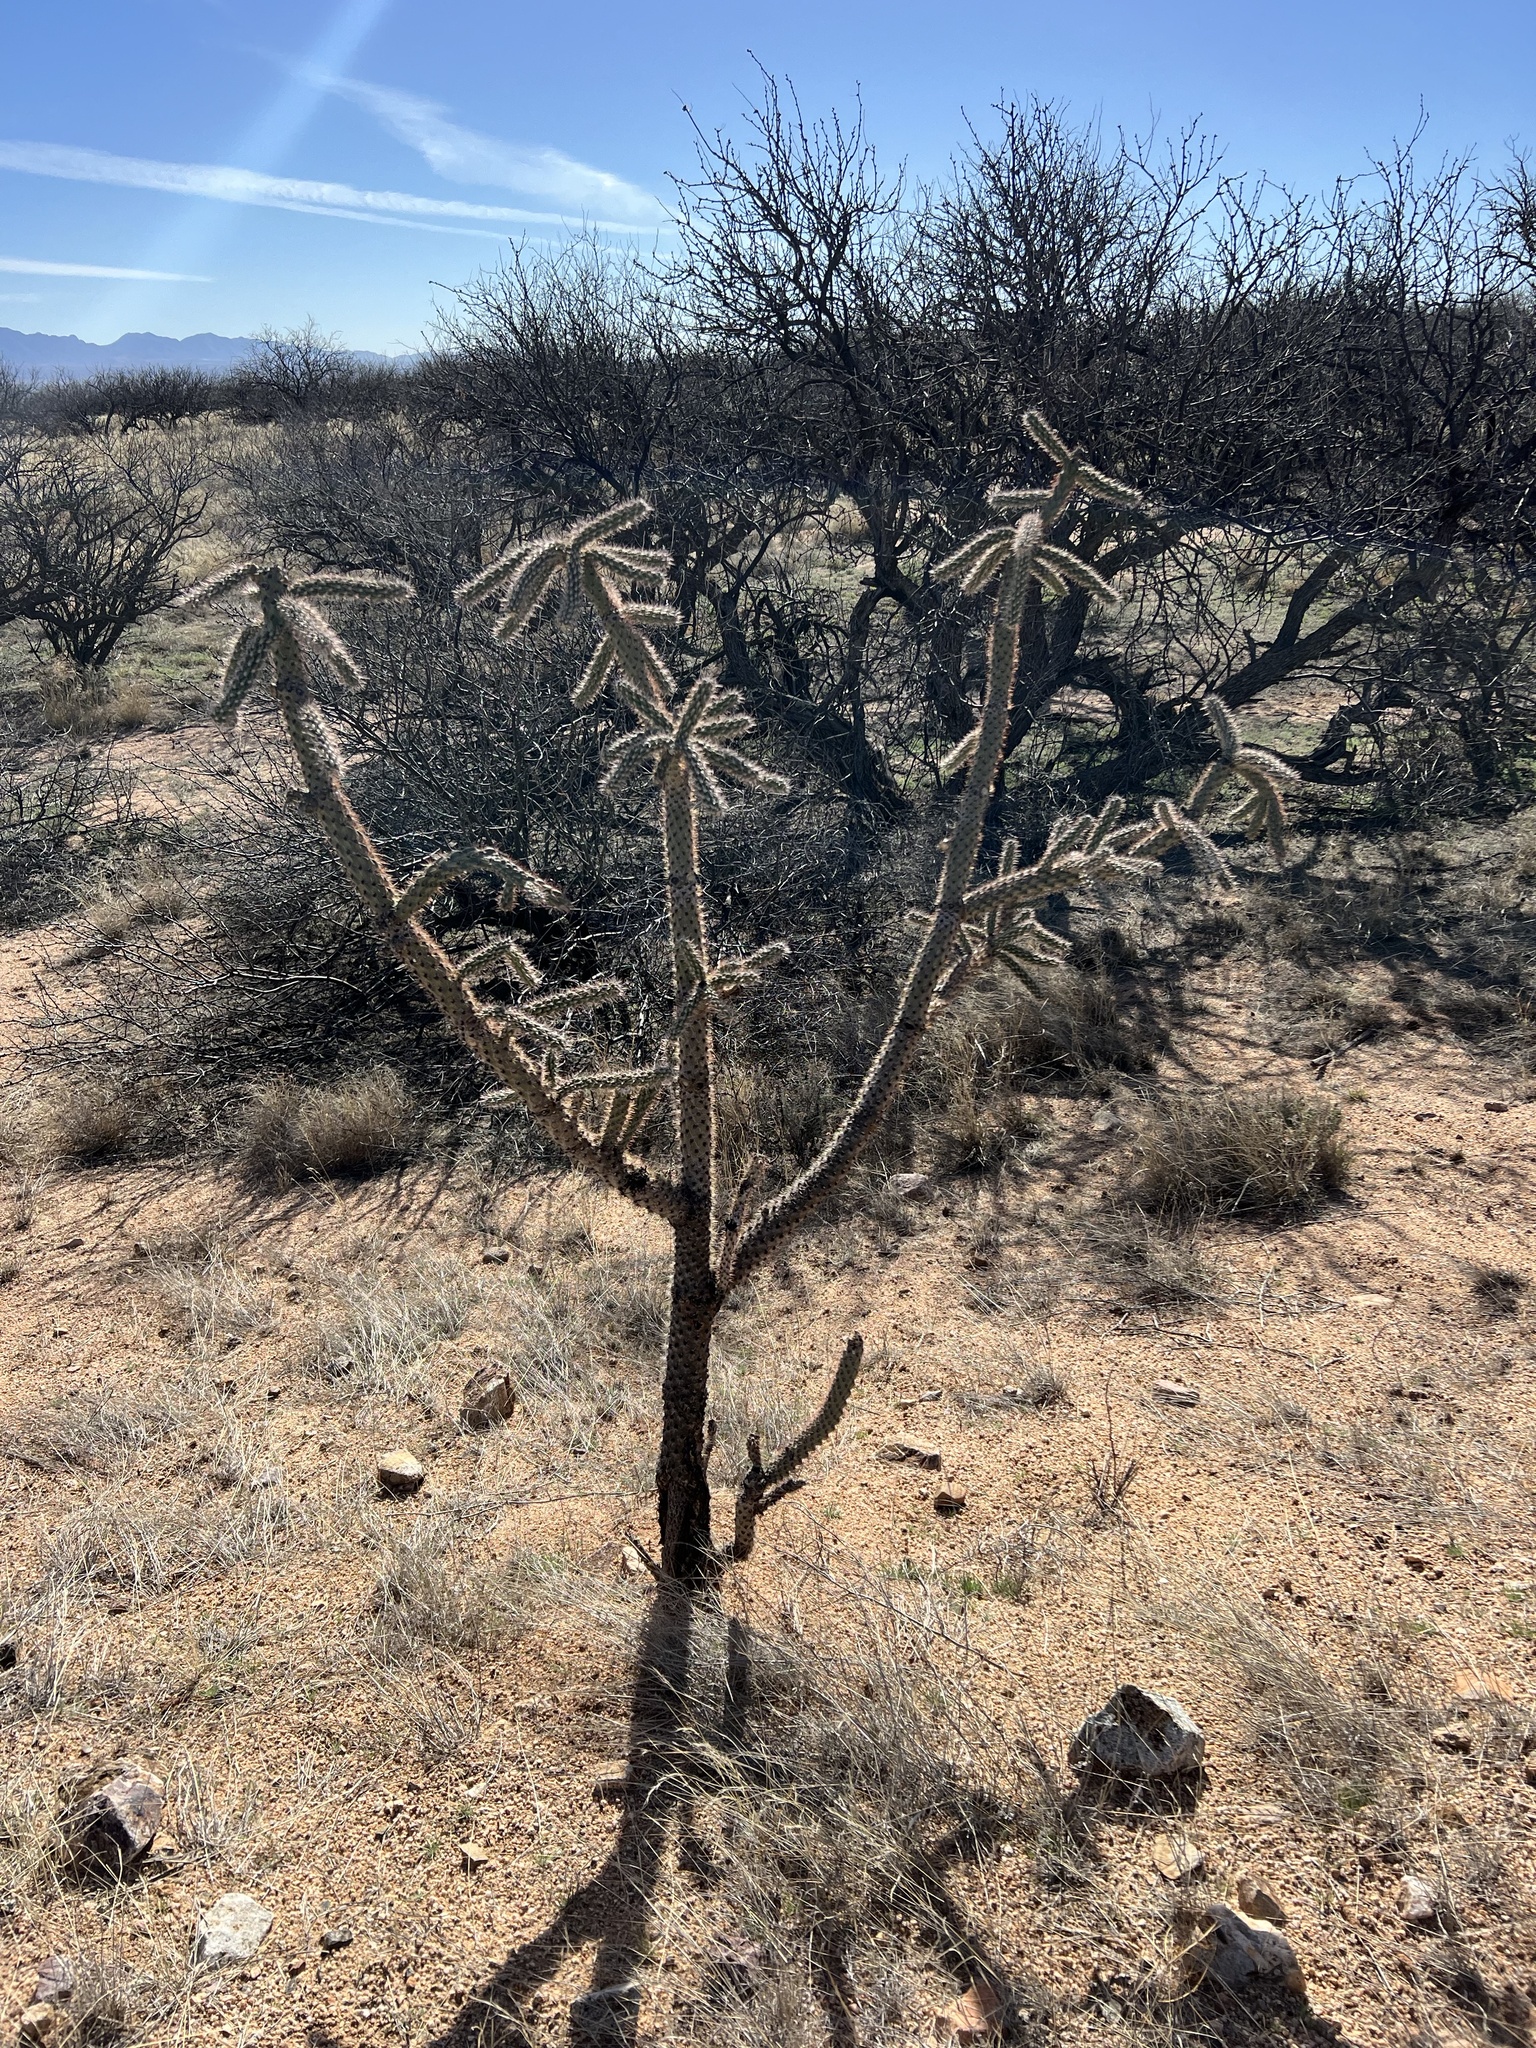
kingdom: Plantae
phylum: Tracheophyta
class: Magnoliopsida
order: Caryophyllales
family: Cactaceae
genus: Cylindropuntia
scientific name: Cylindropuntia imbricata
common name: Candelabrum cactus
